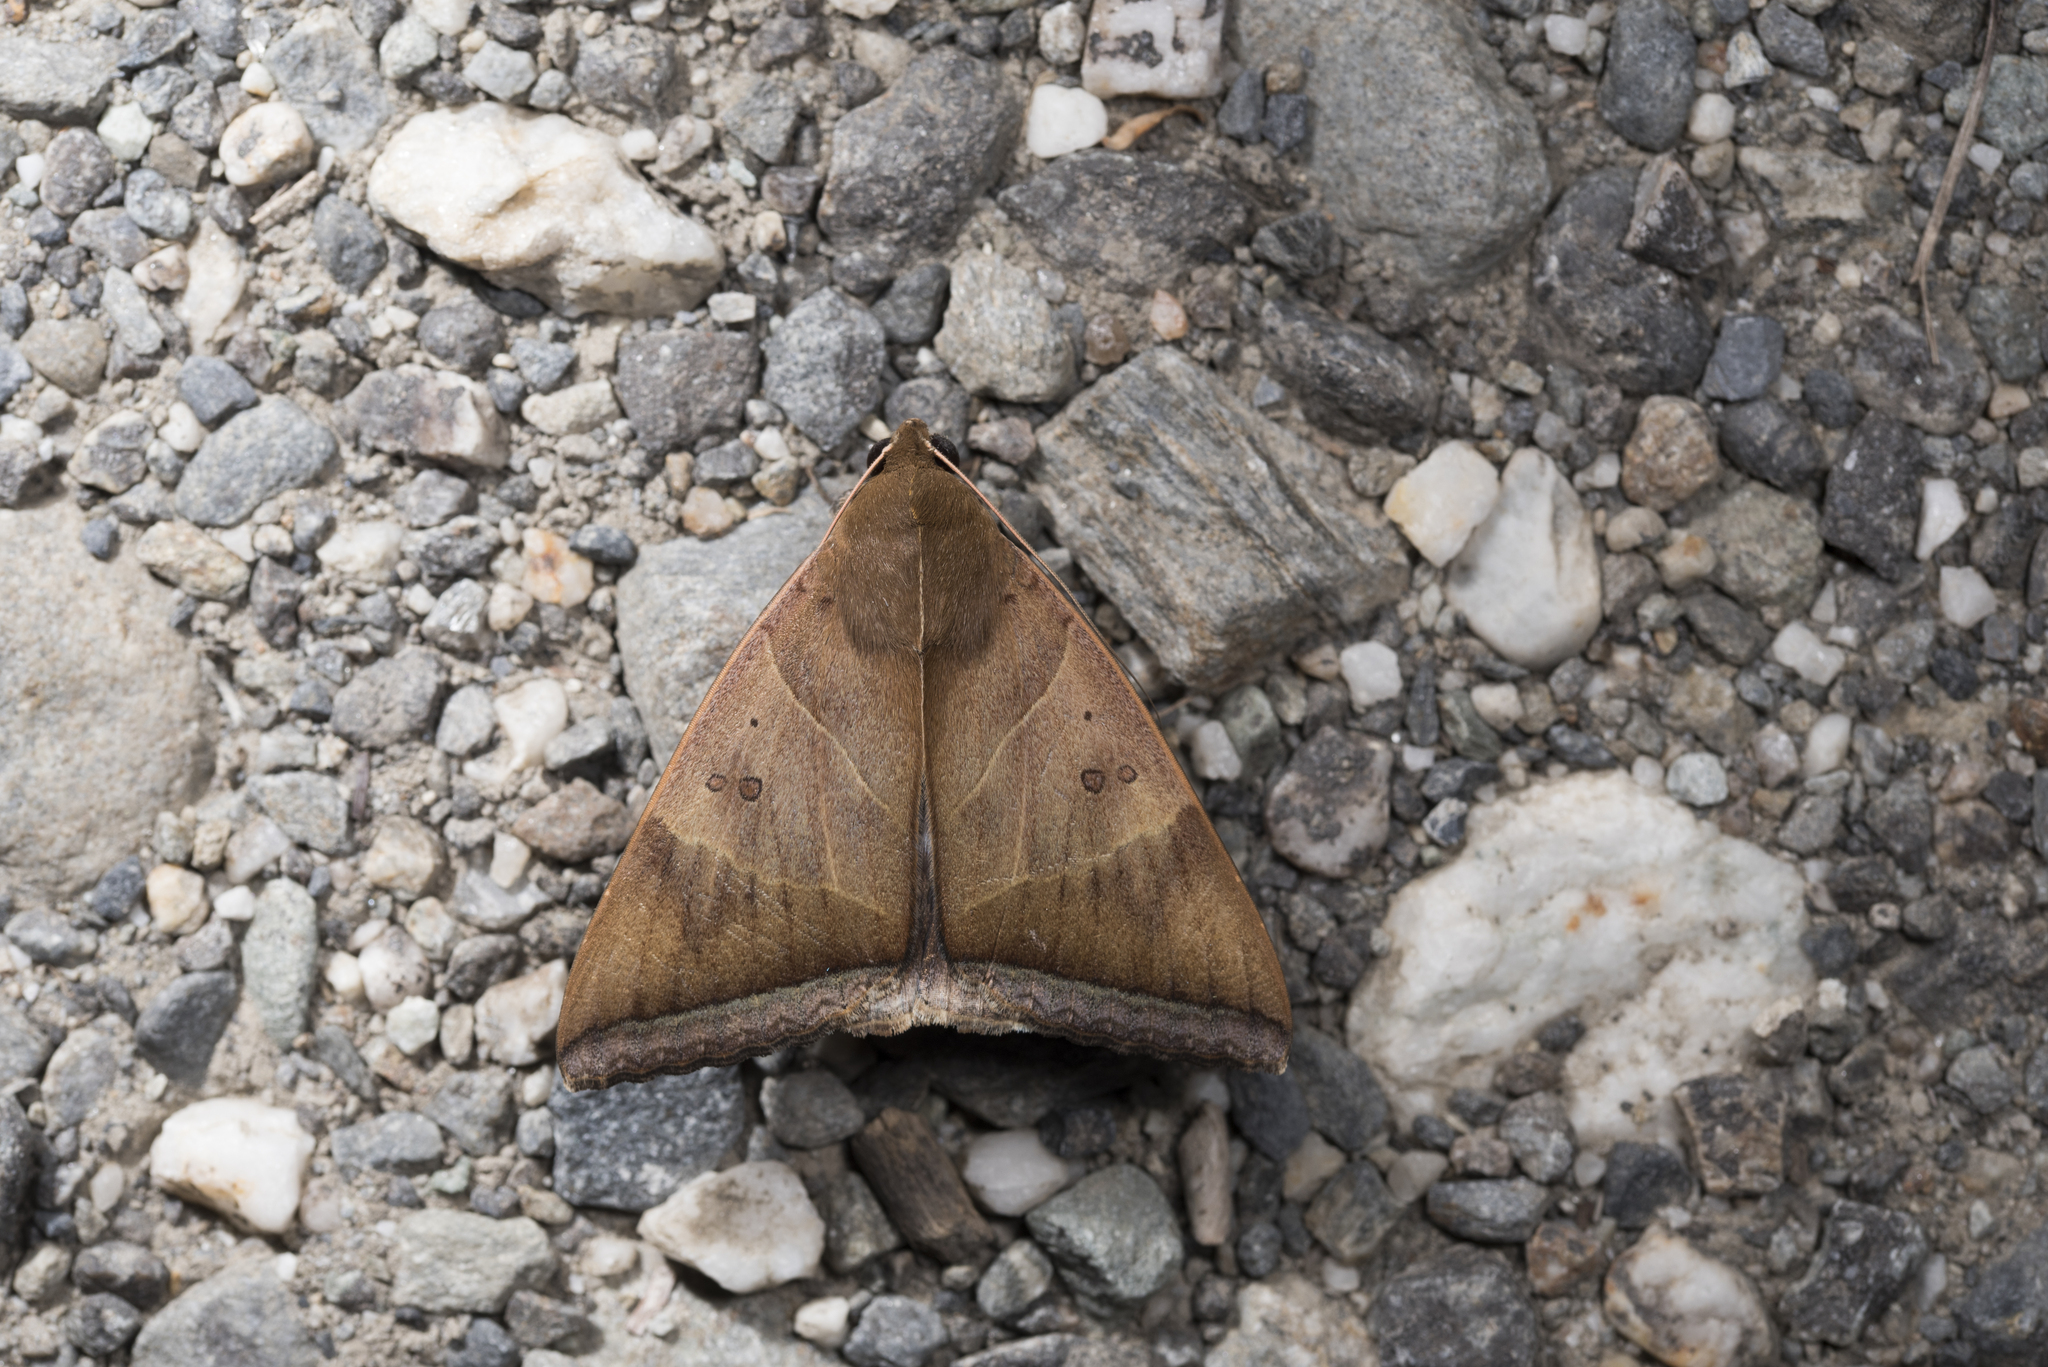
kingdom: Animalia
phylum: Arthropoda
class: Insecta
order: Lepidoptera
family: Erebidae
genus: Artena
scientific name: Artena dotata
